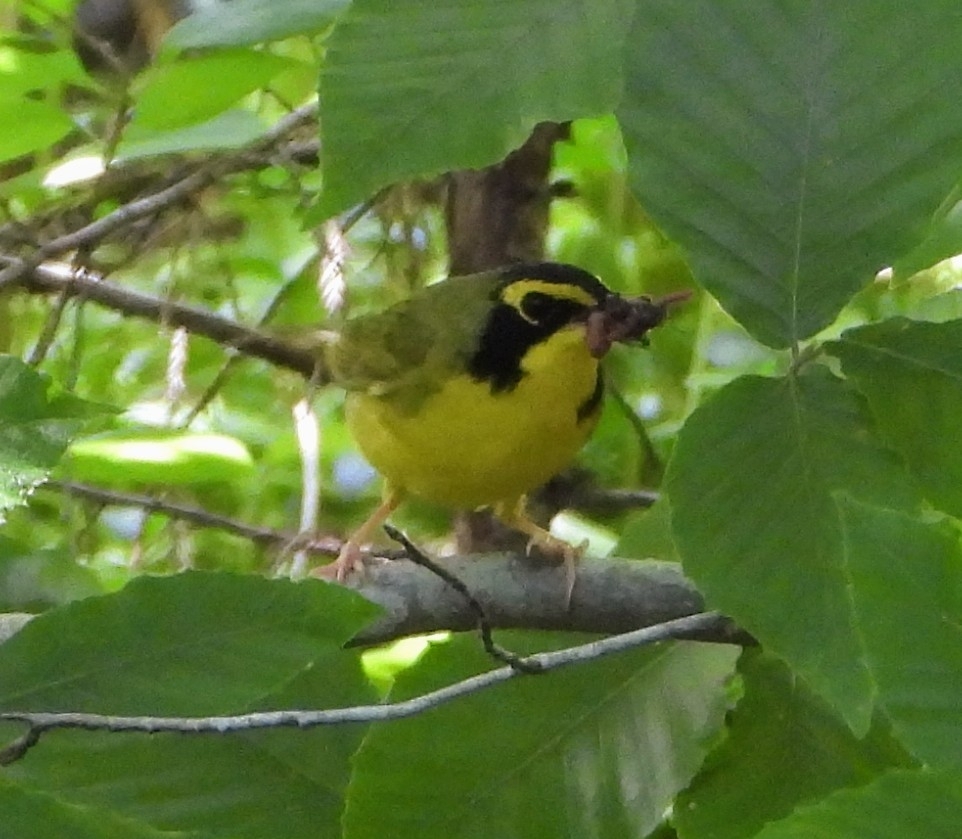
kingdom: Animalia
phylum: Chordata
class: Aves
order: Passeriformes
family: Parulidae
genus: Geothlypis
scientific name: Geothlypis formosa
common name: Kentucky warbler
